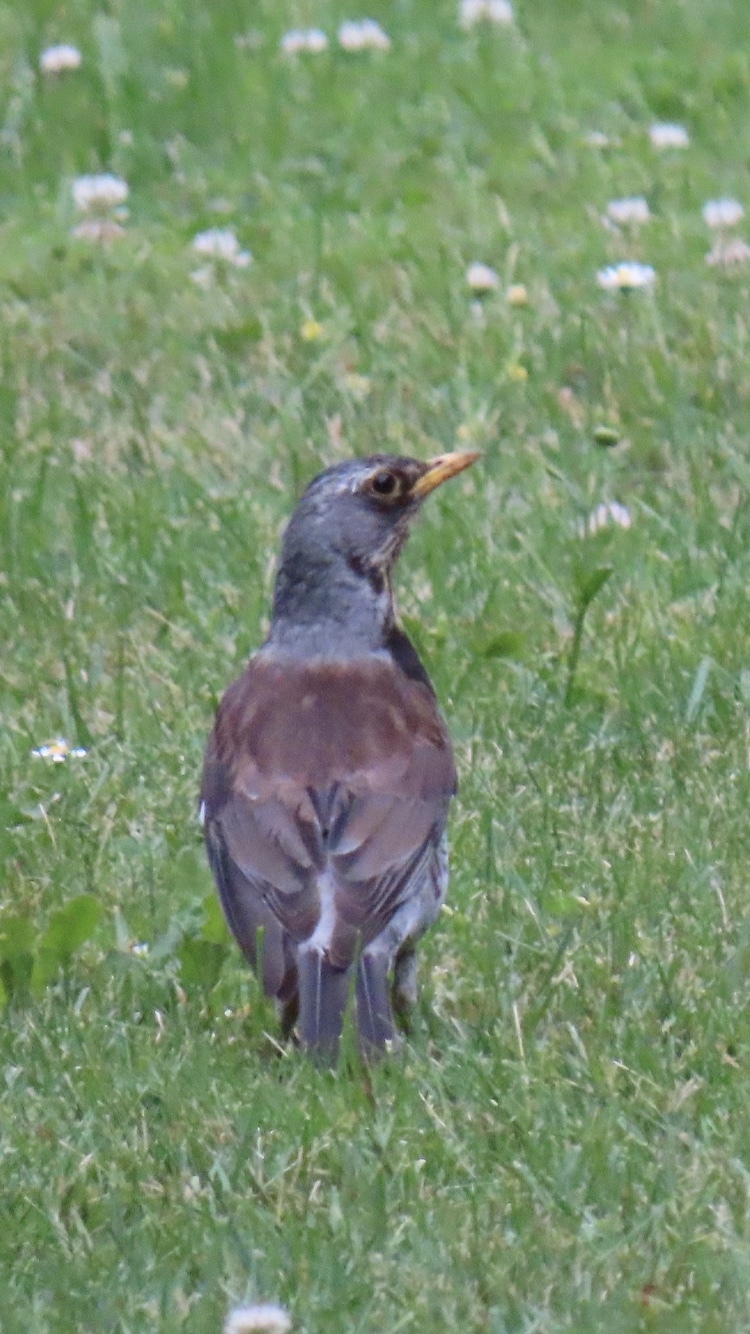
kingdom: Animalia
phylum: Chordata
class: Aves
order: Passeriformes
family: Turdidae
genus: Turdus
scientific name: Turdus pilaris
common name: Fieldfare
